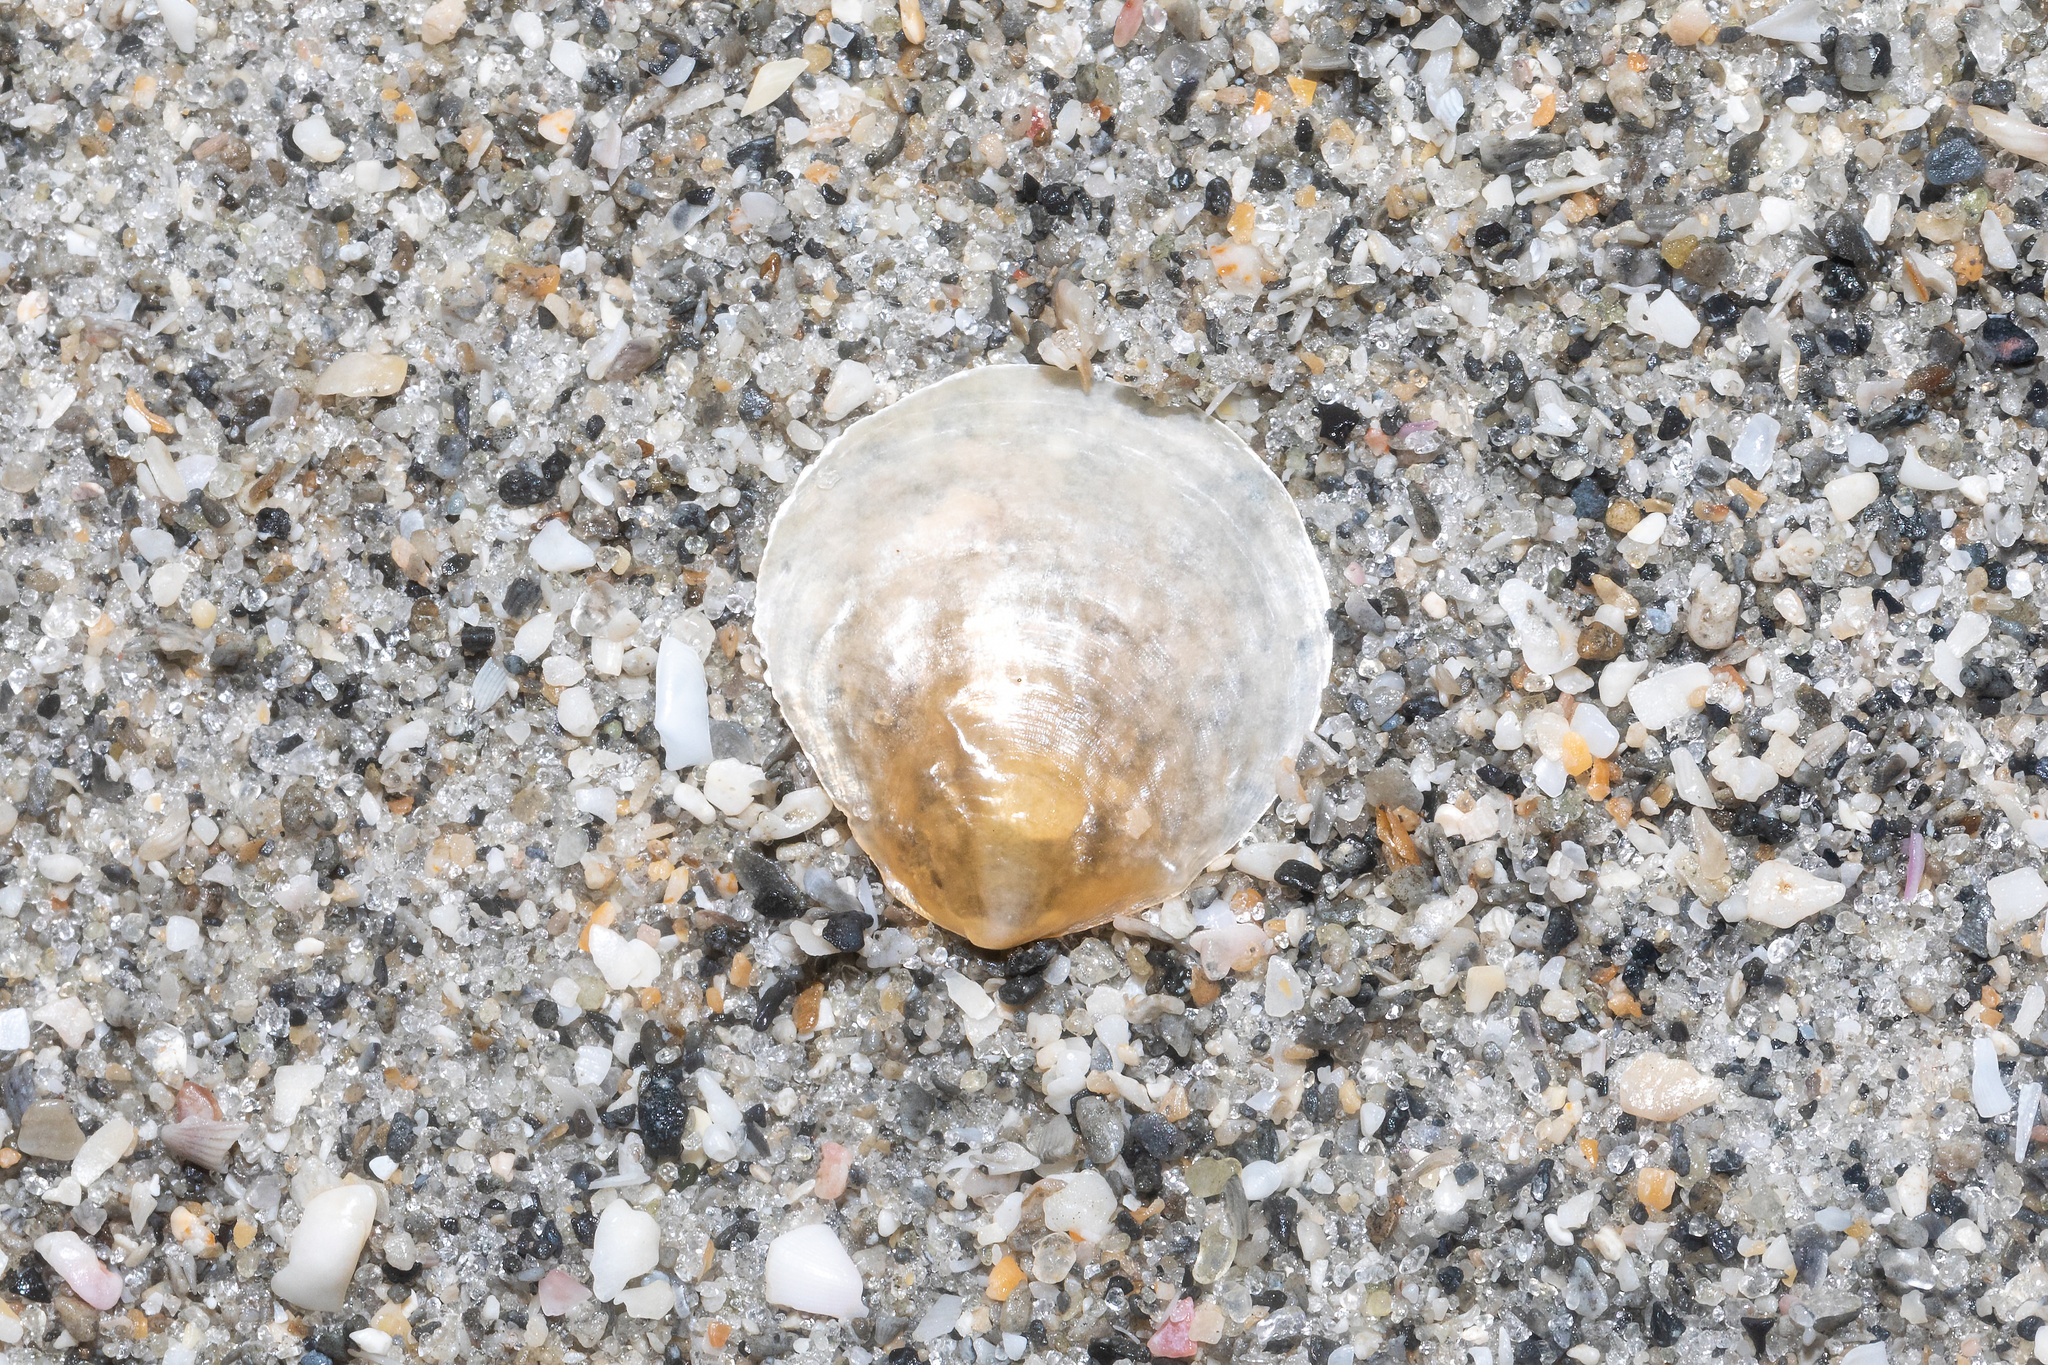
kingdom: Animalia
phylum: Mollusca
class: Bivalvia
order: Pectinida
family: Anomiidae
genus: Anomia
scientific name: Anomia simplex
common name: Common jingle shell
